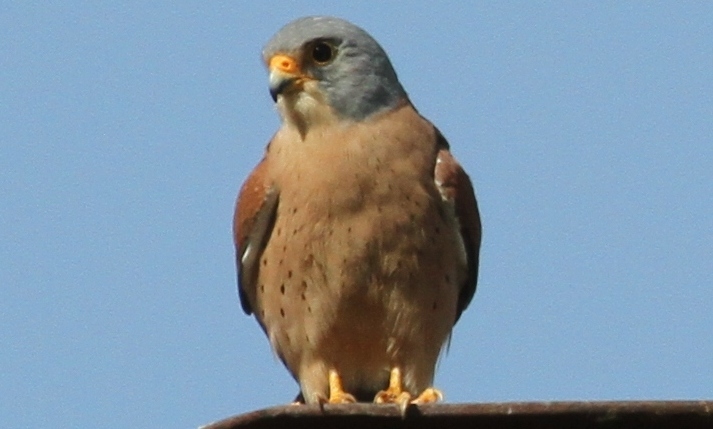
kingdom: Animalia
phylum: Chordata
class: Aves
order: Falconiformes
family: Falconidae
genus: Falco
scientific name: Falco naumanni
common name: Lesser kestrel
